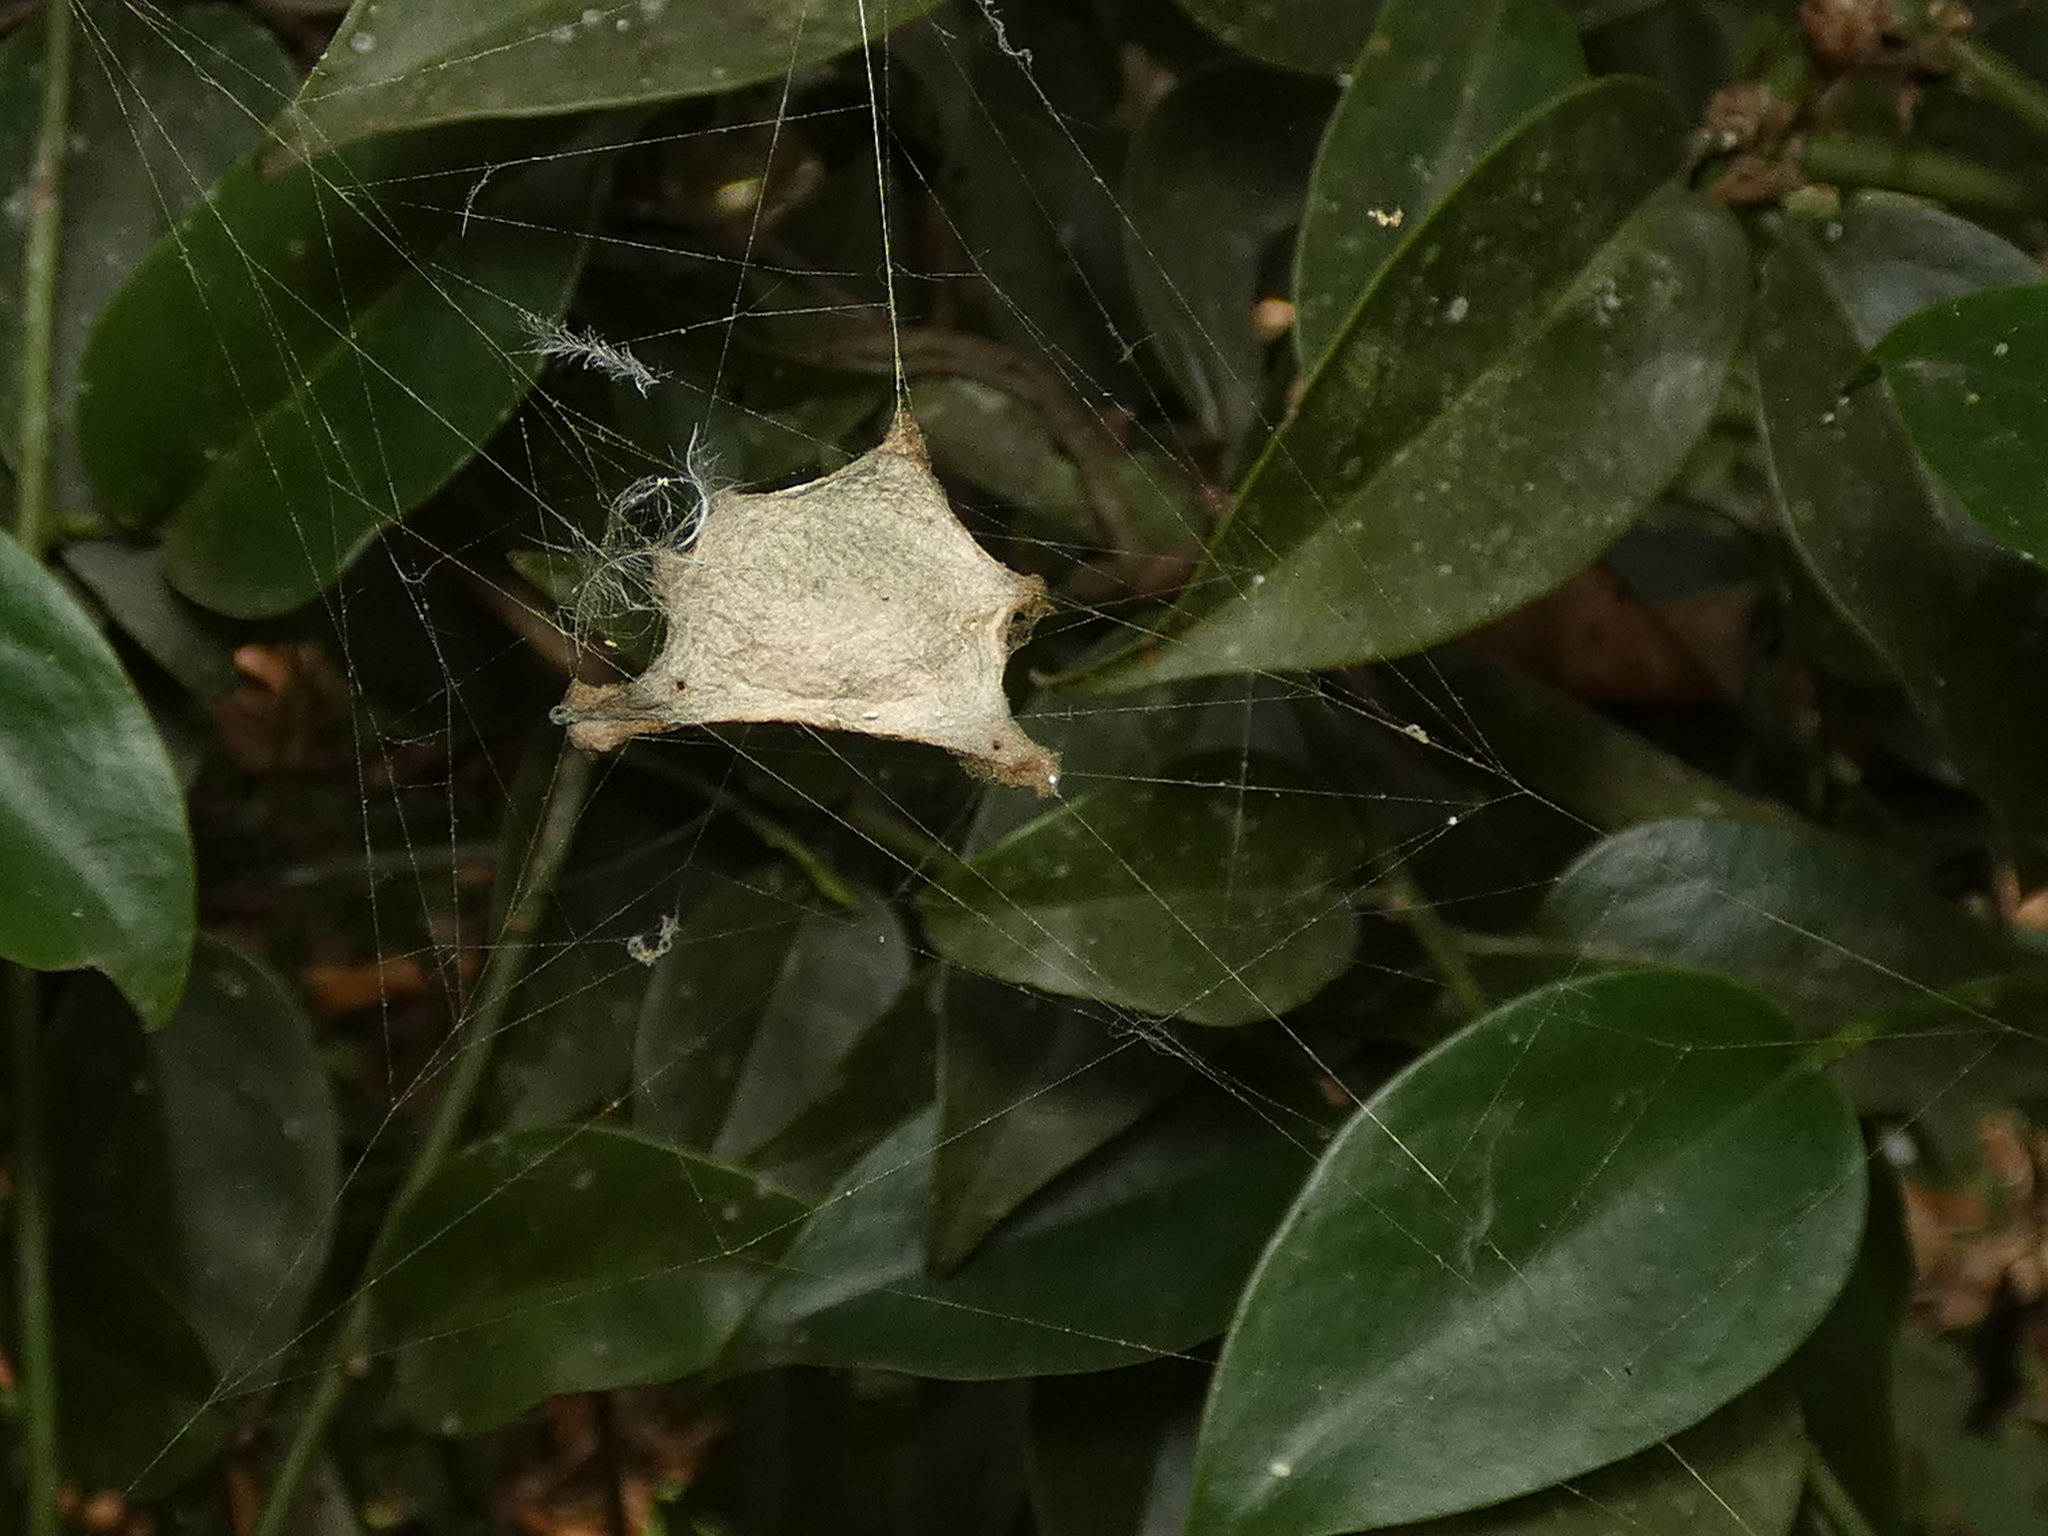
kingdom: Animalia
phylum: Arthropoda
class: Arachnida
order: Araneae
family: Araneidae
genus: Argiope
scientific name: Argiope argentata
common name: Orb weavers
